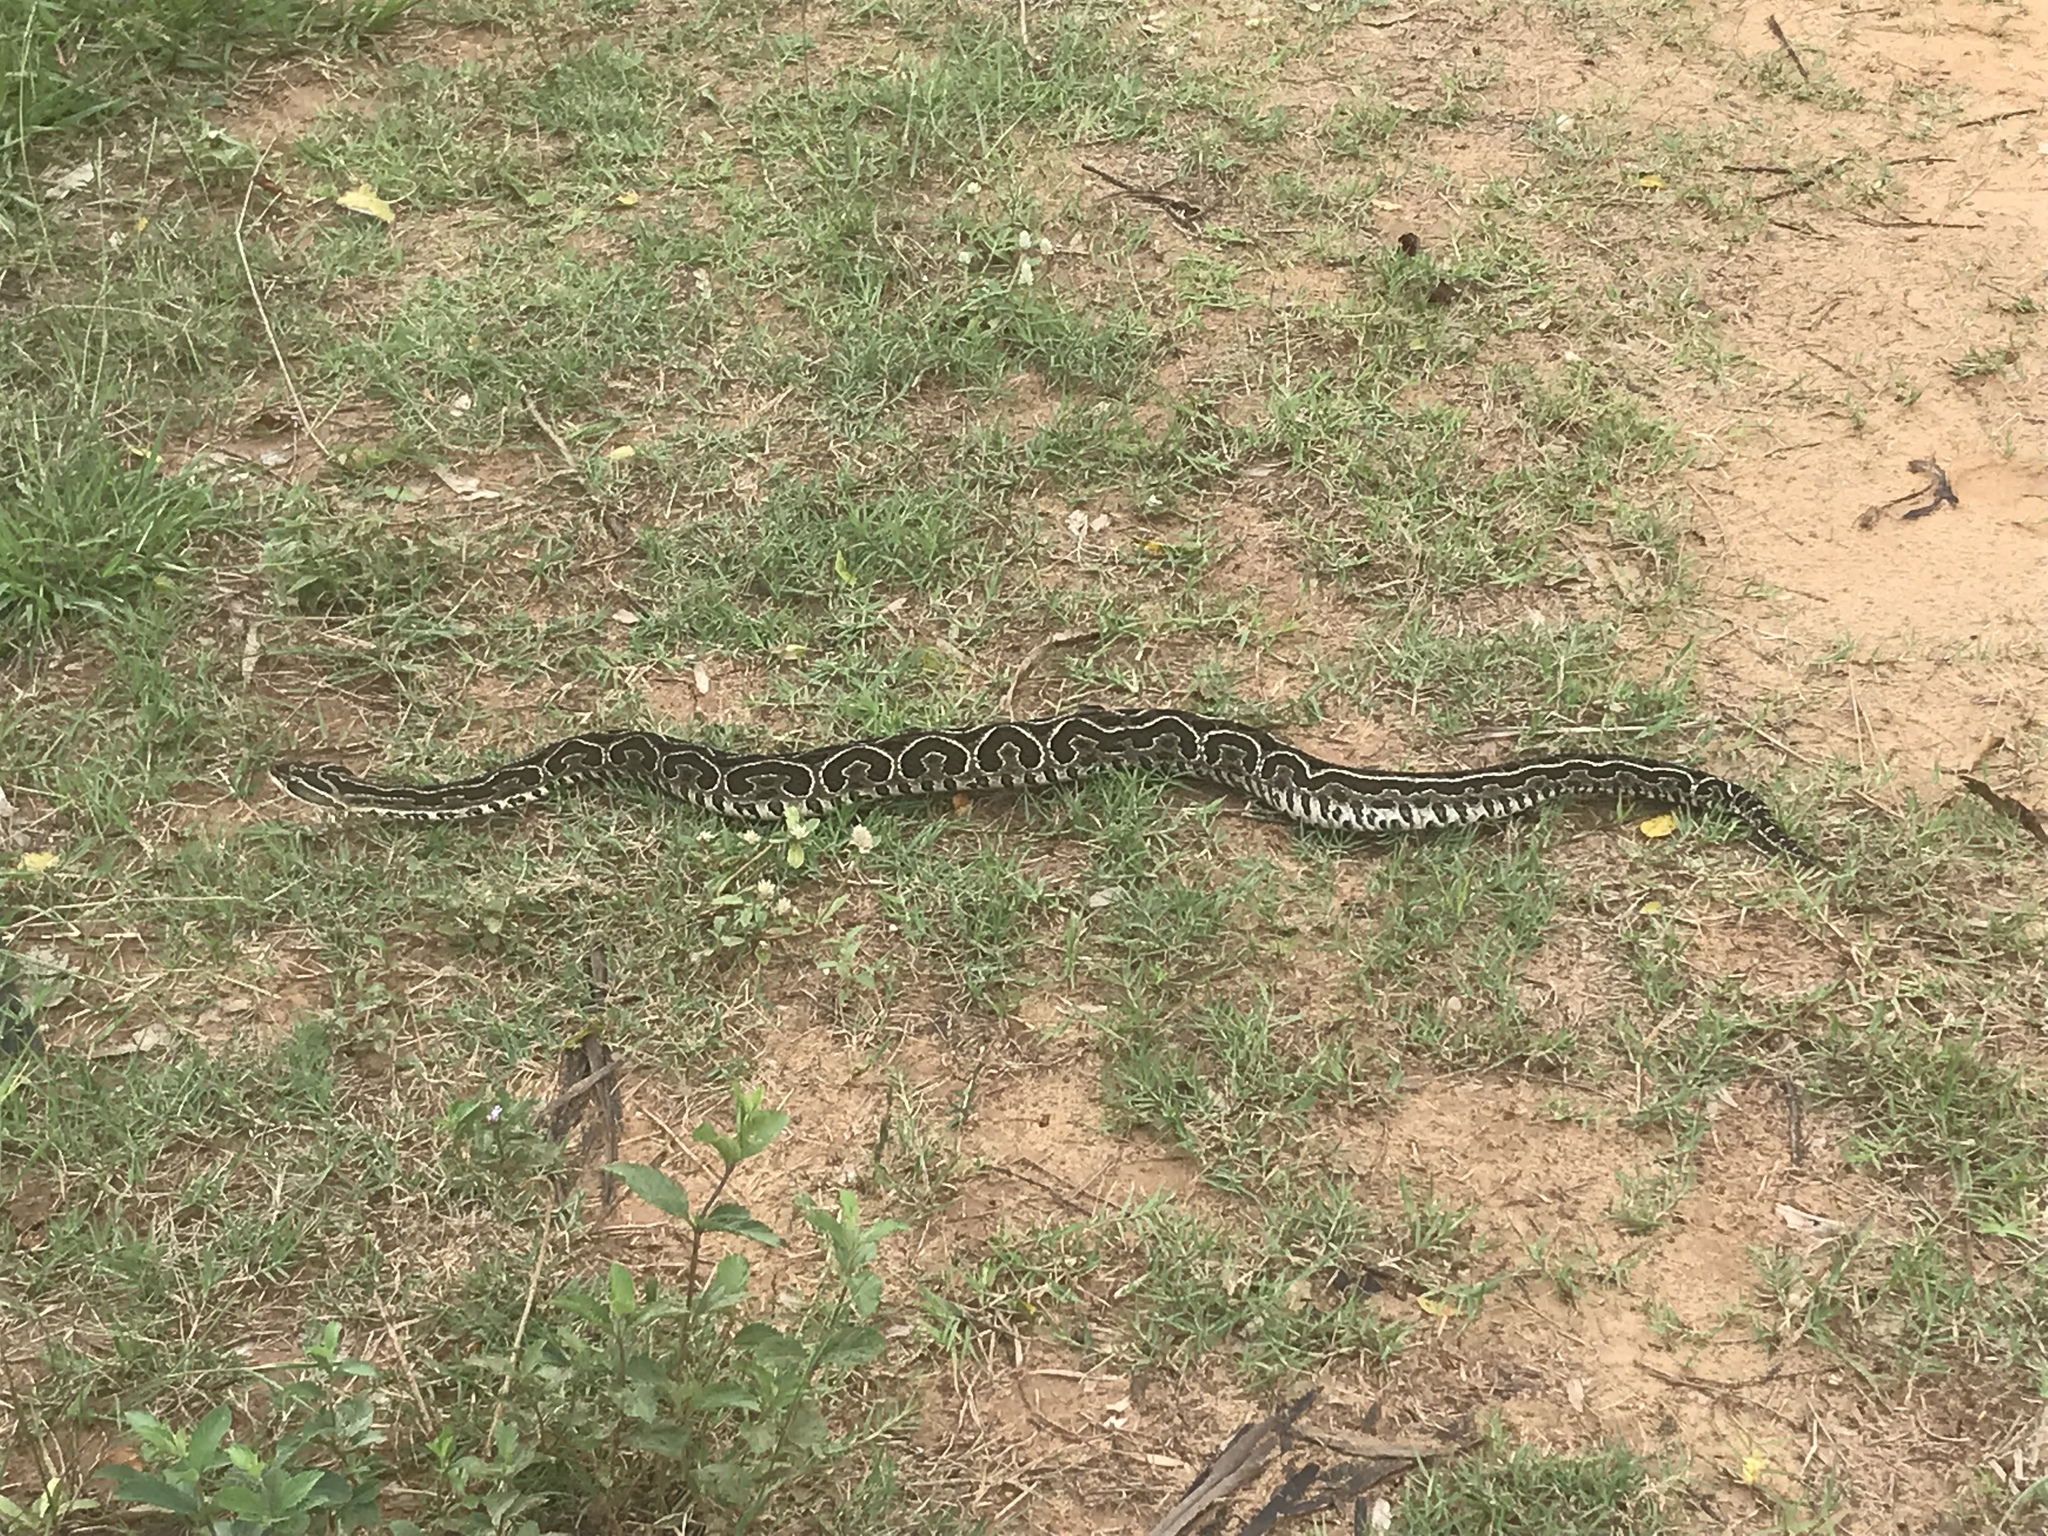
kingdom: Animalia
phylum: Chordata
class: Squamata
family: Viperidae
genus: Bothrops
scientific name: Bothrops alternatus
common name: Urutu
